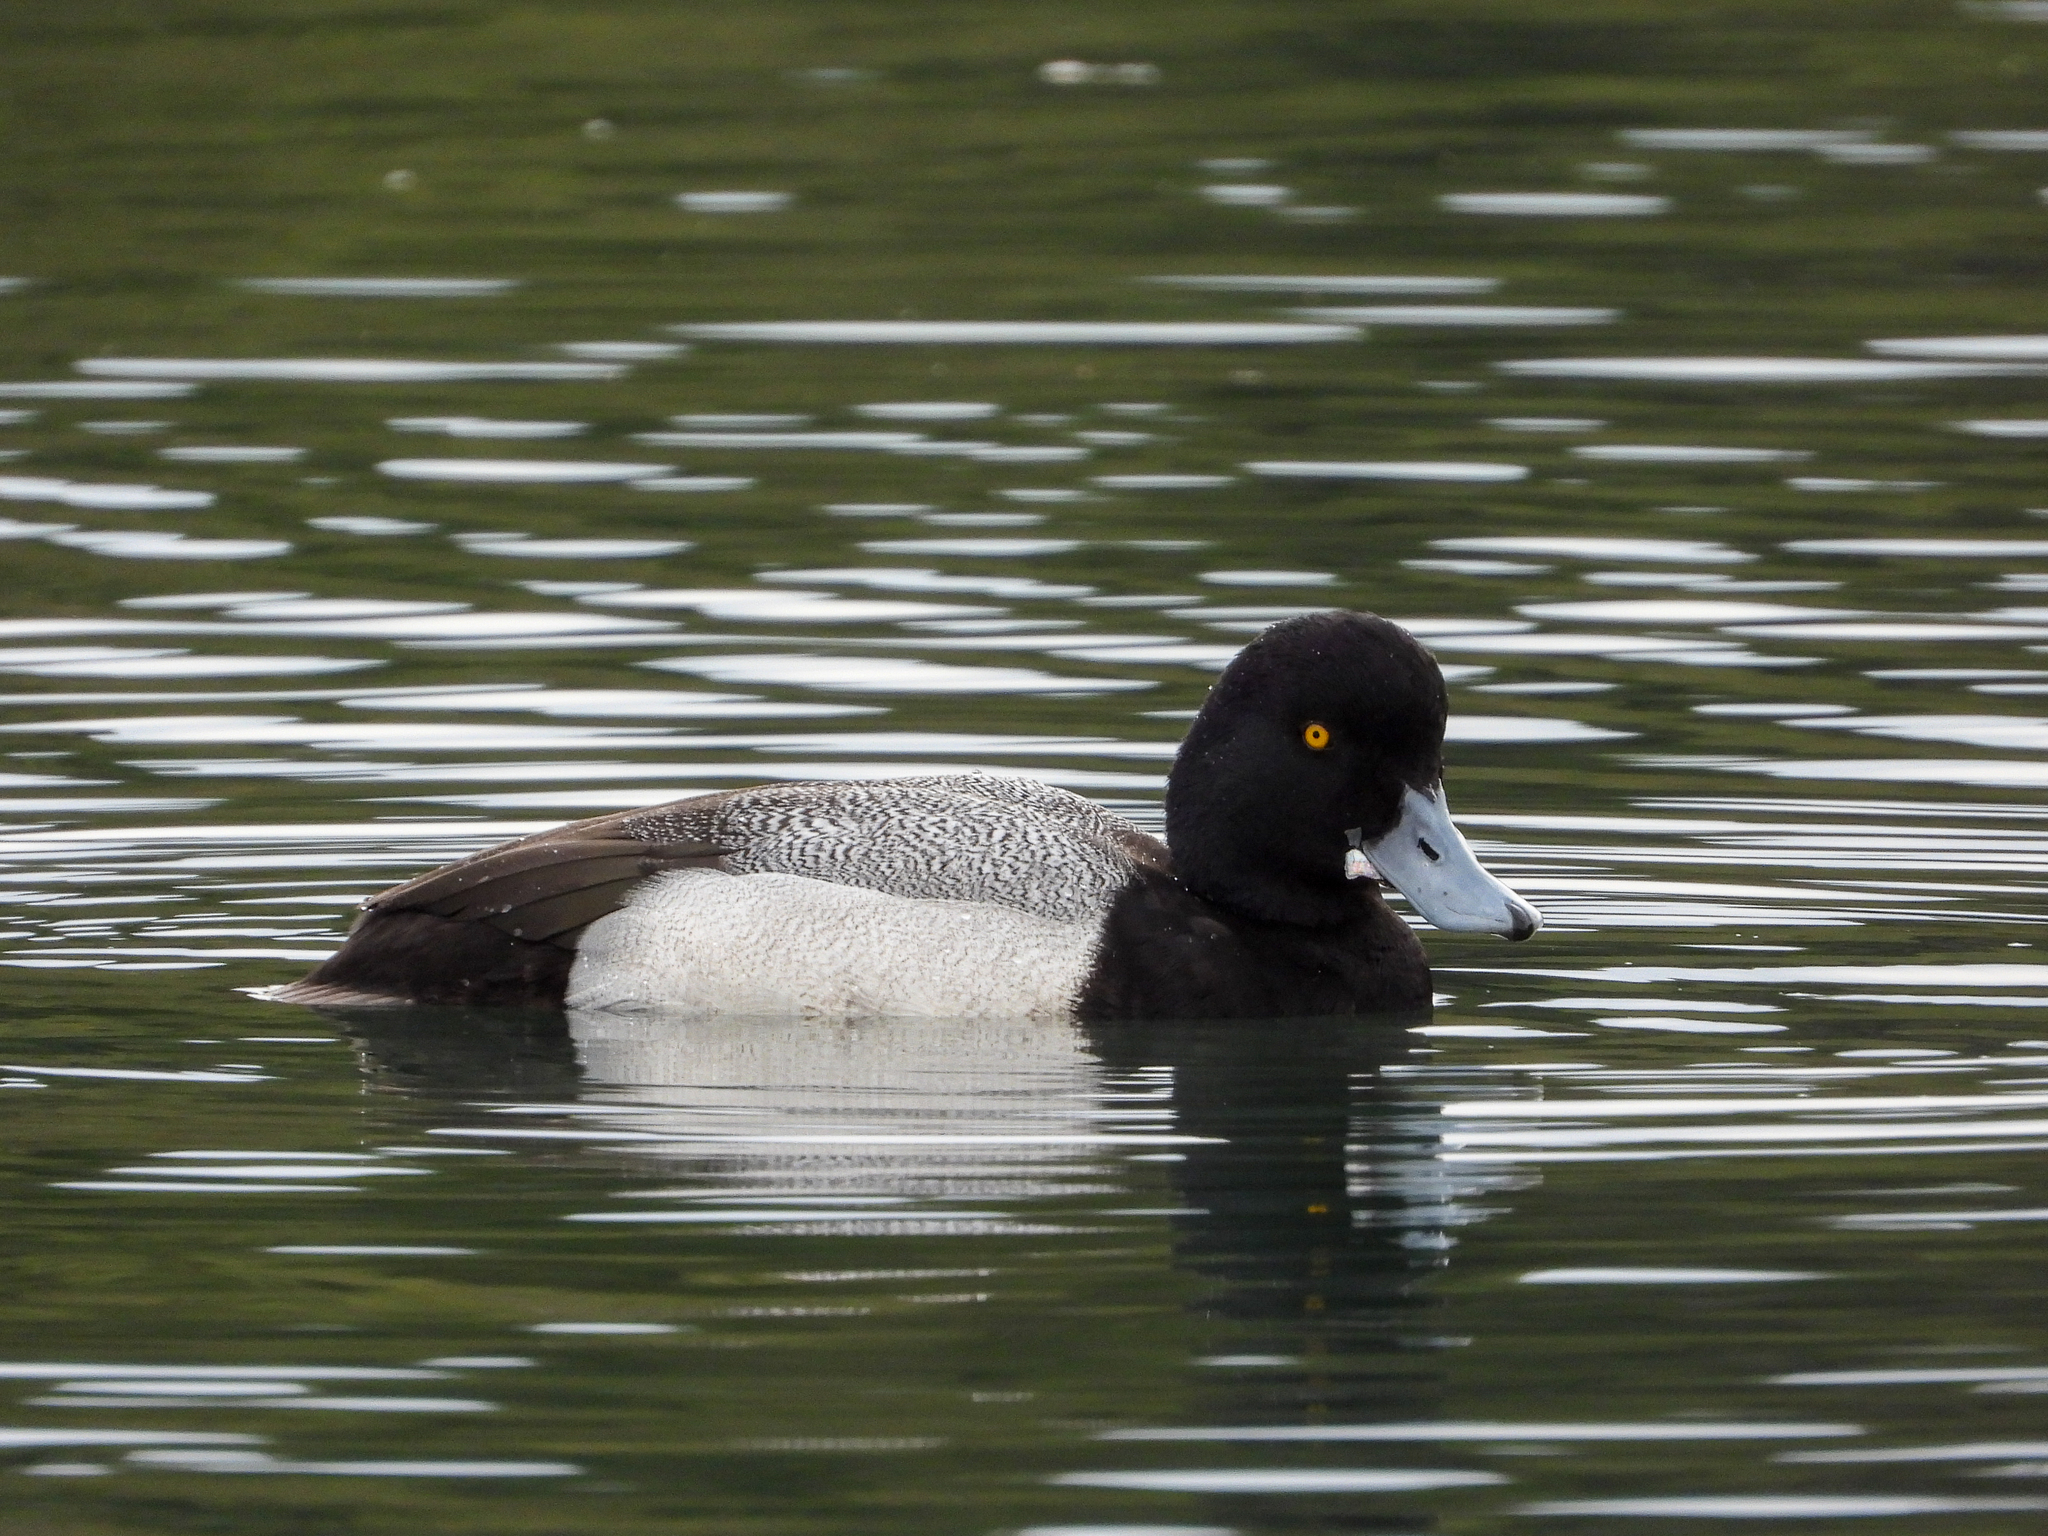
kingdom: Animalia
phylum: Chordata
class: Aves
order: Anseriformes
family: Anatidae
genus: Aythya
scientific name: Aythya affinis
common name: Lesser scaup
